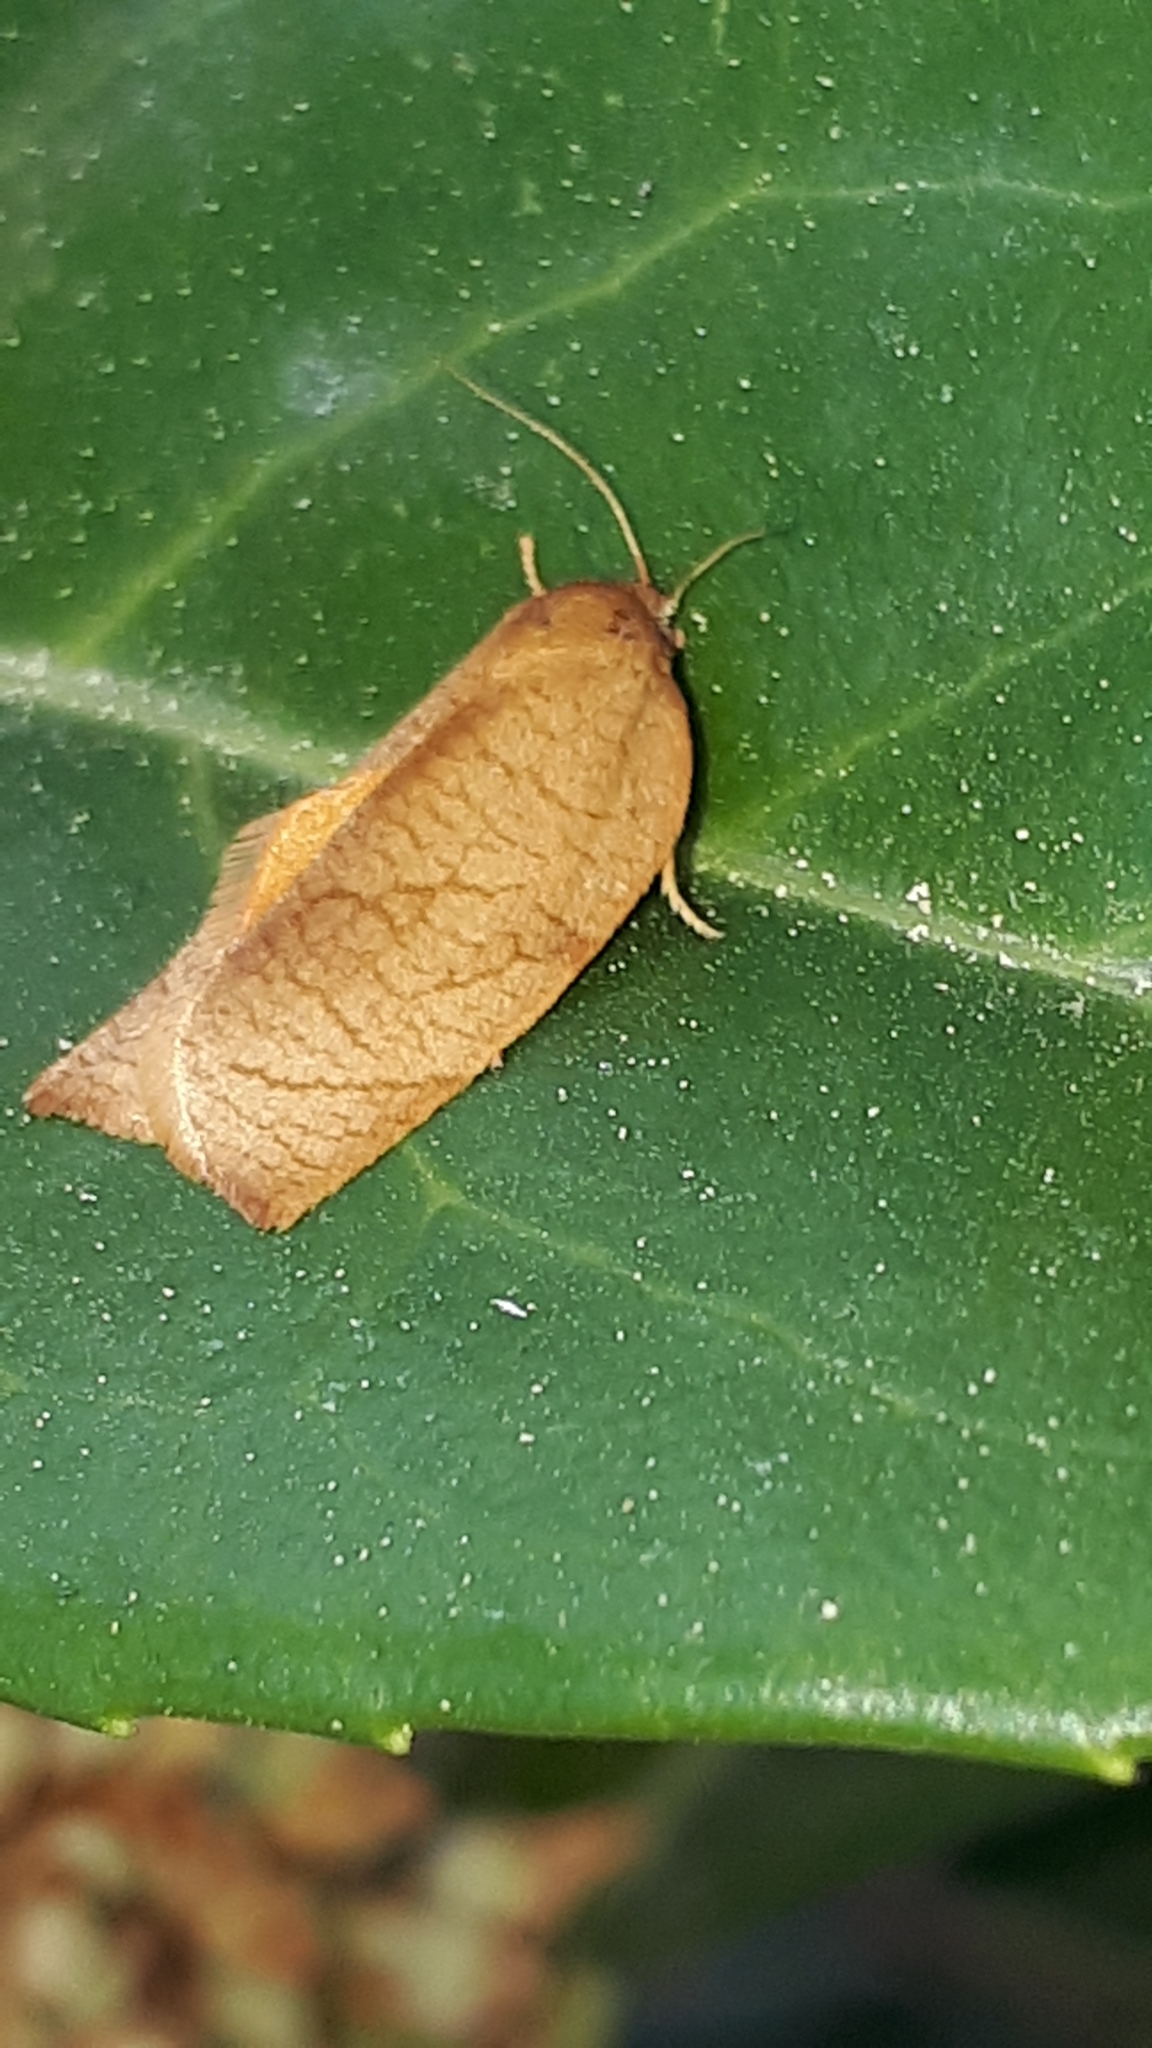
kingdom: Animalia
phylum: Arthropoda
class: Insecta
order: Lepidoptera
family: Tortricidae
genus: Cacoecimorpha
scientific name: Cacoecimorpha pronubana
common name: Carnation tortrix
